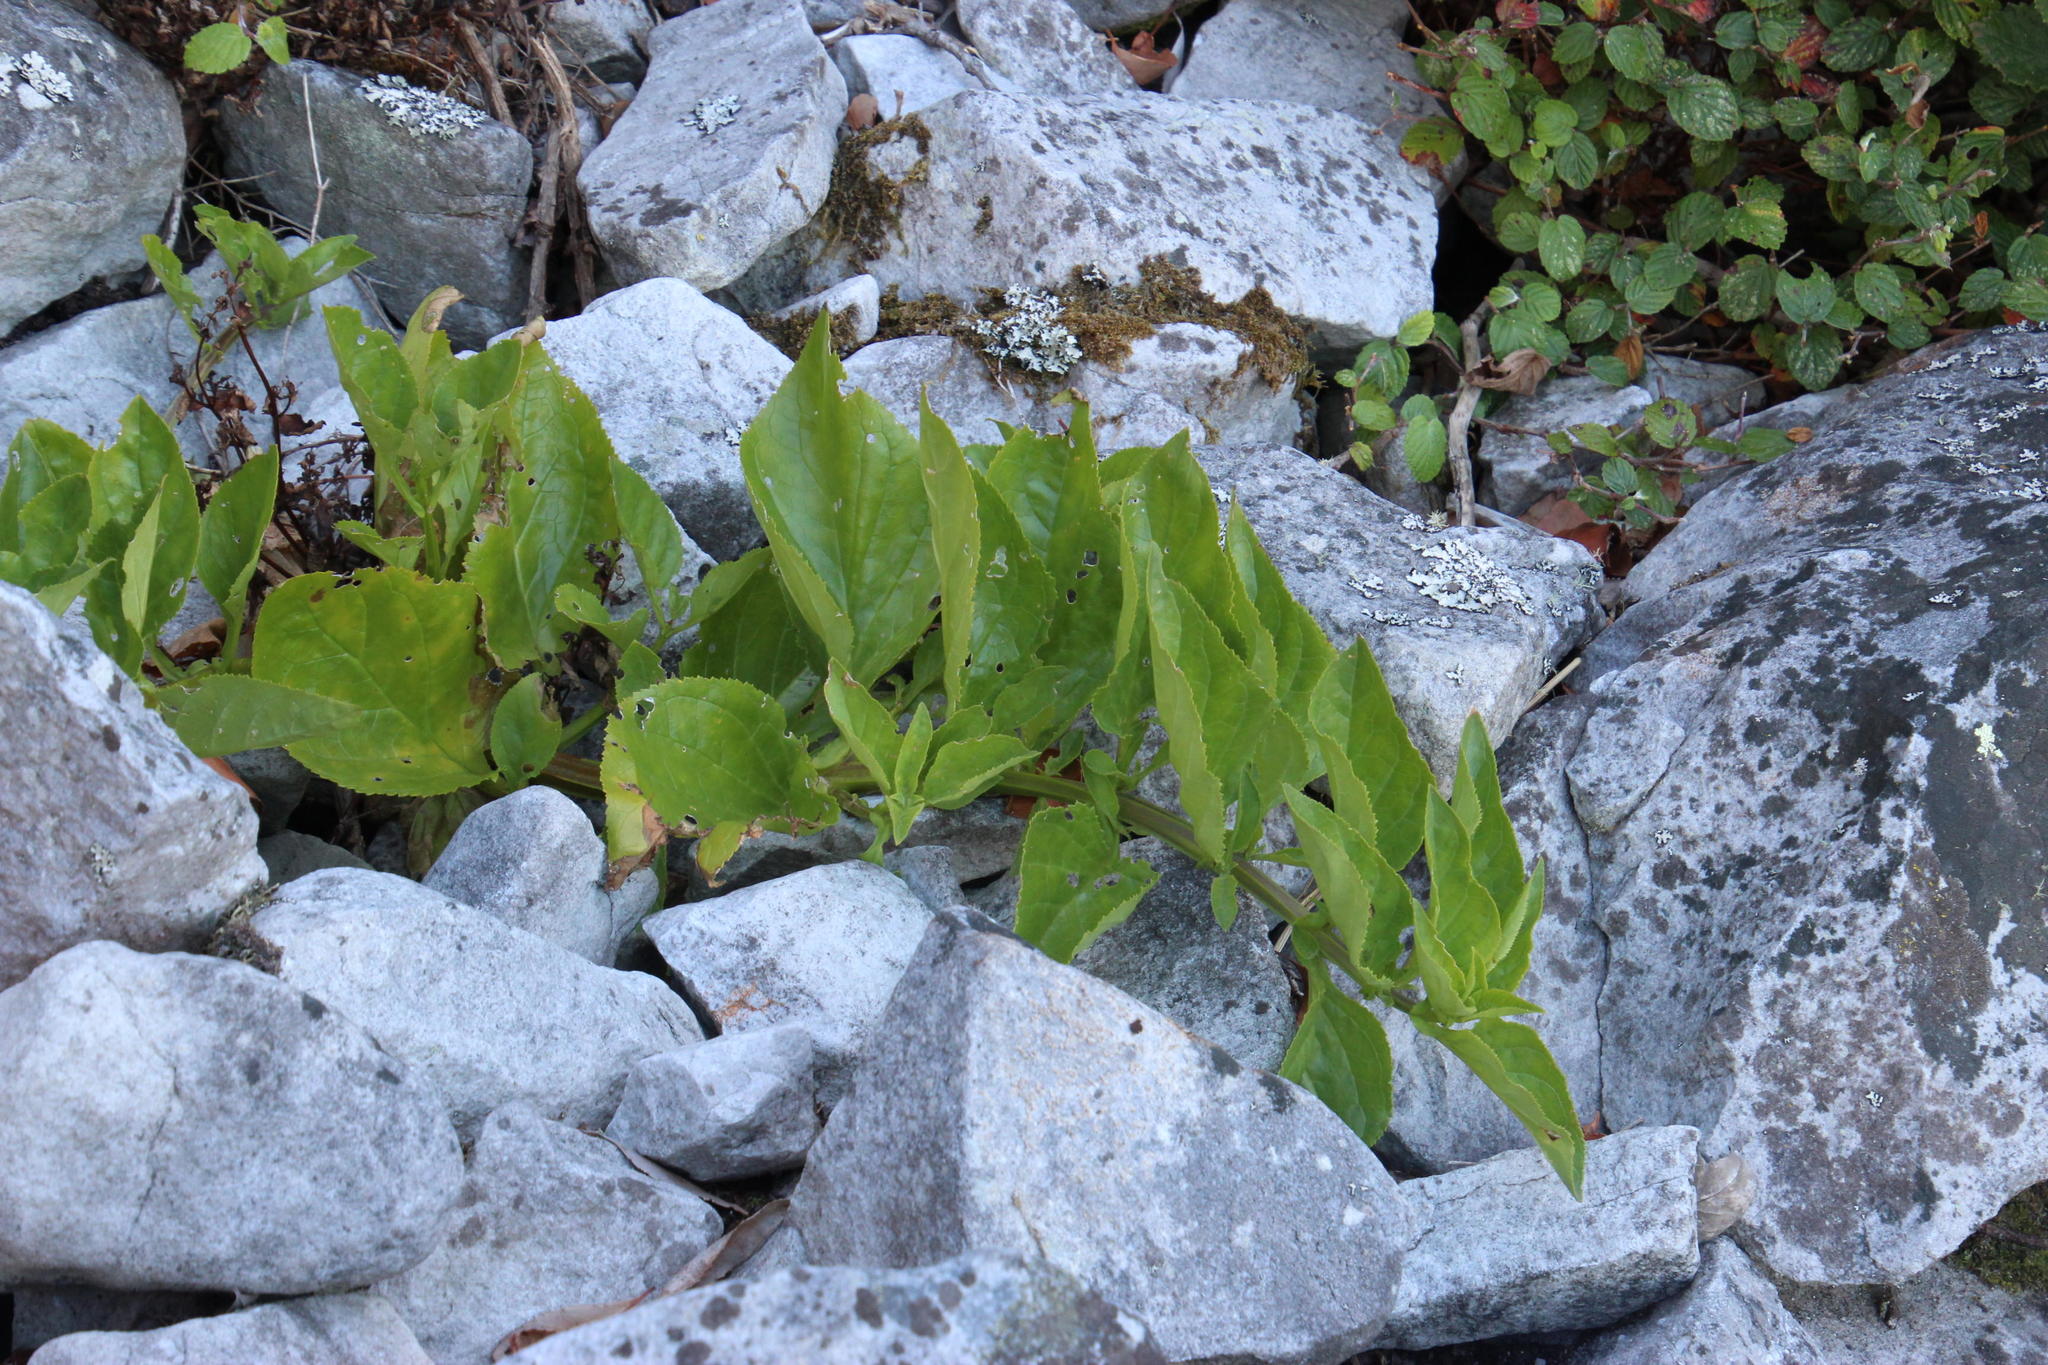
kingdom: Plantae
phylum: Tracheophyta
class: Magnoliopsida
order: Lamiales
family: Scrophulariaceae
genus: Teedia
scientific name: Teedia lucida
